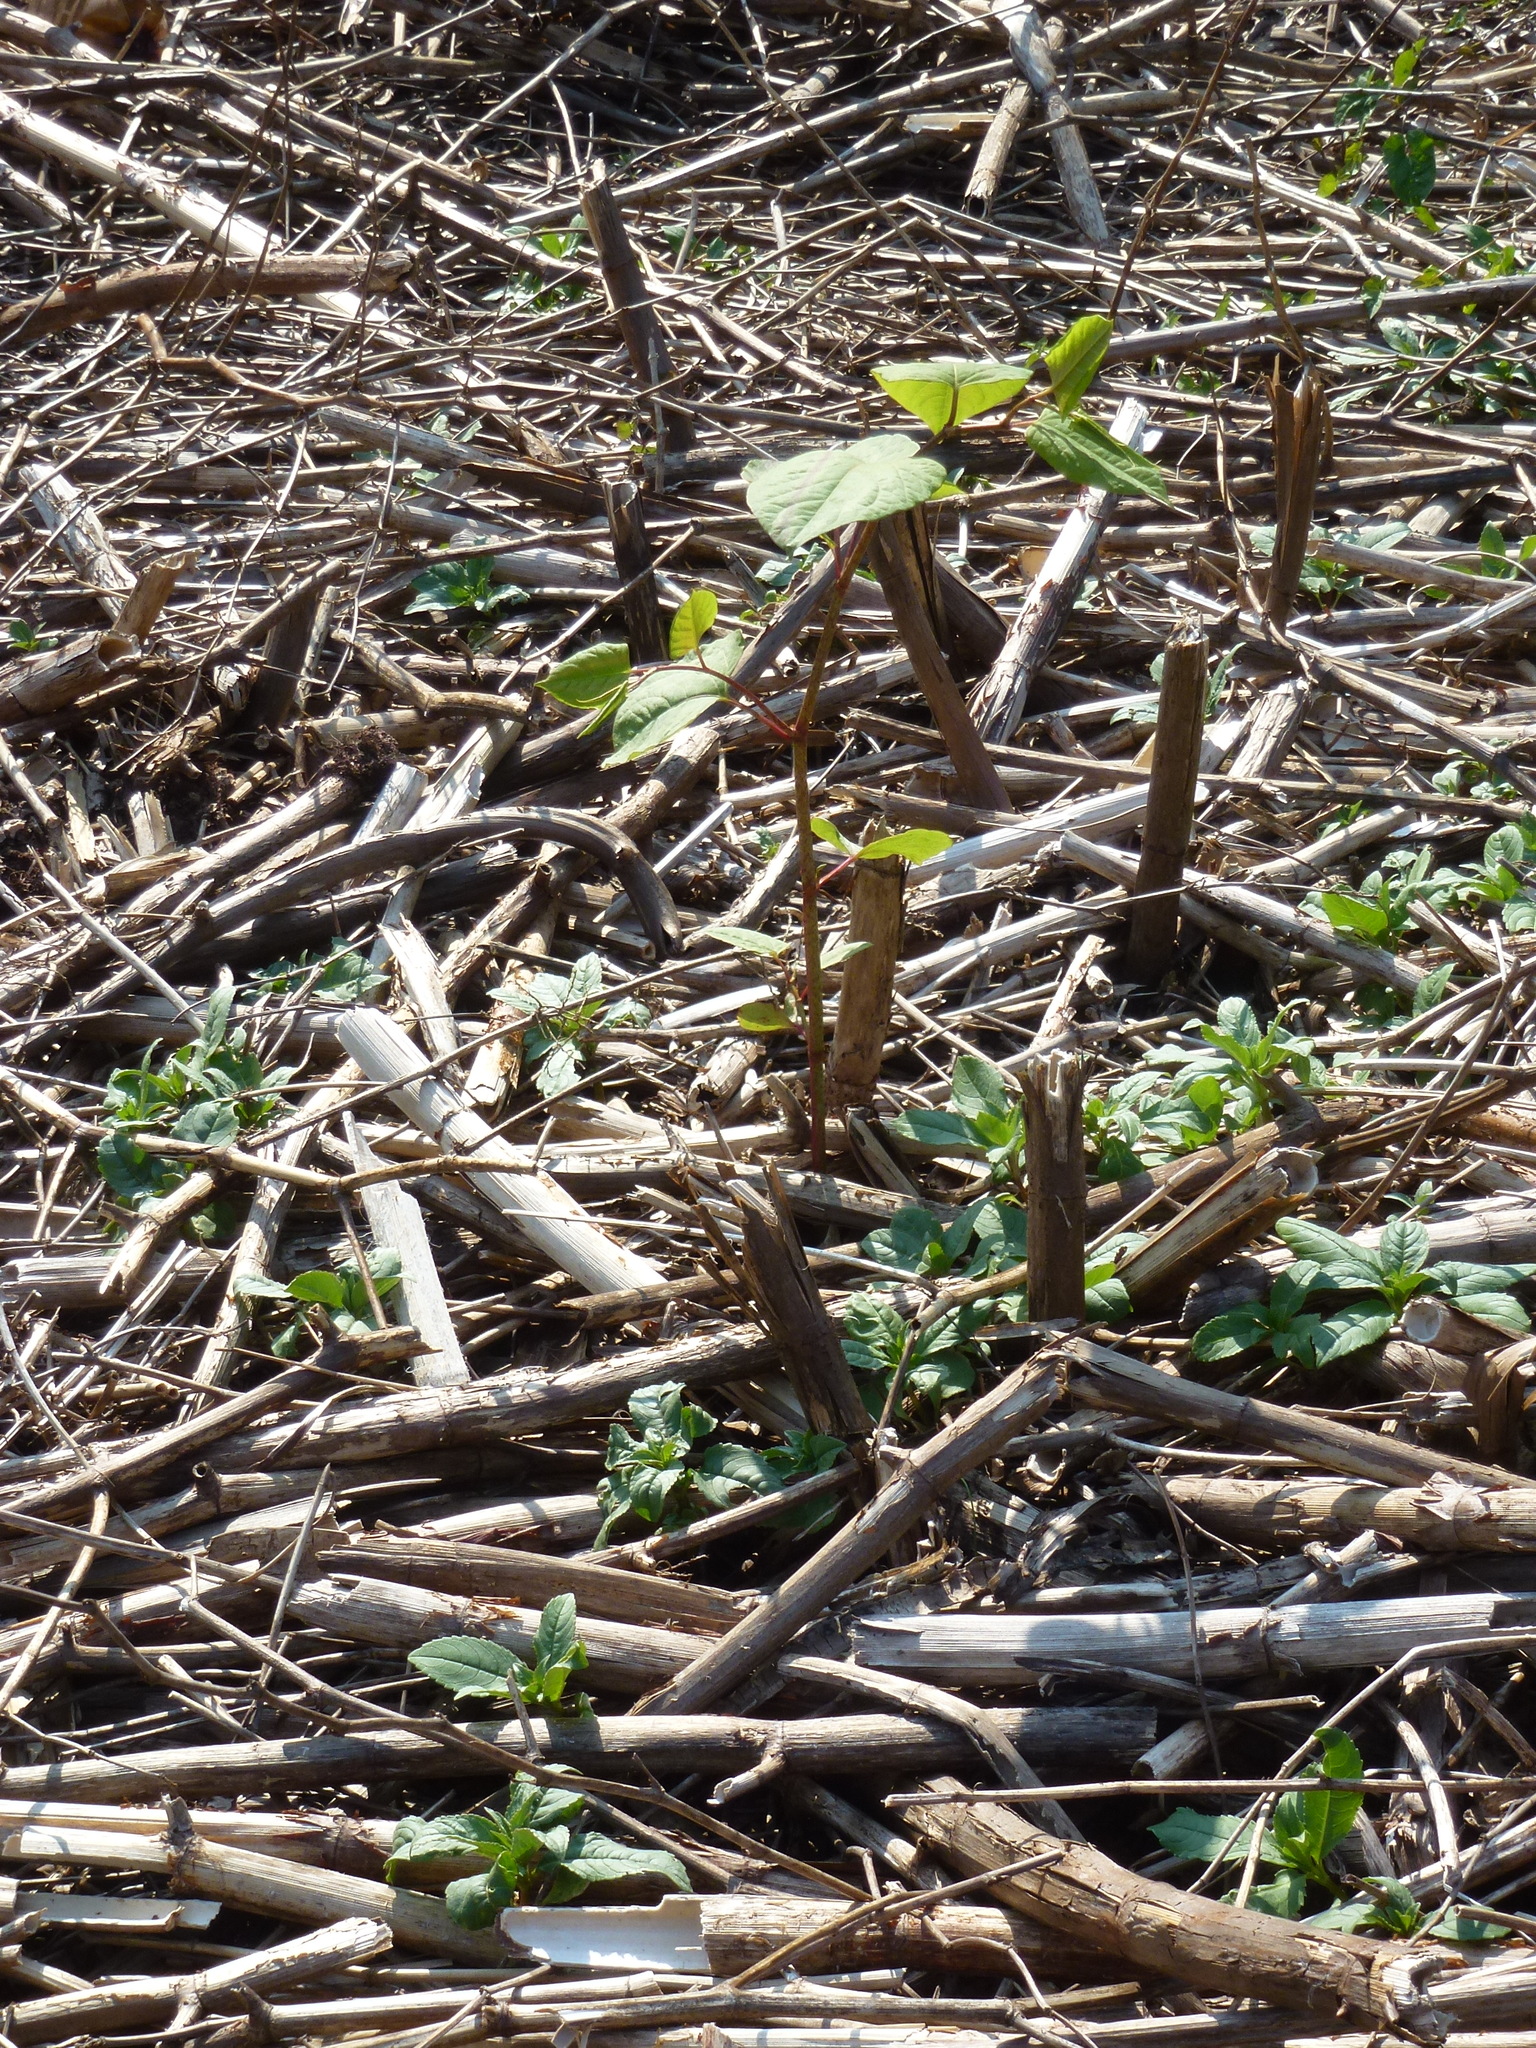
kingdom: Plantae
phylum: Tracheophyta
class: Magnoliopsida
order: Caryophyllales
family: Polygonaceae
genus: Reynoutria
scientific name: Reynoutria japonica
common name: Japanese knotweed
